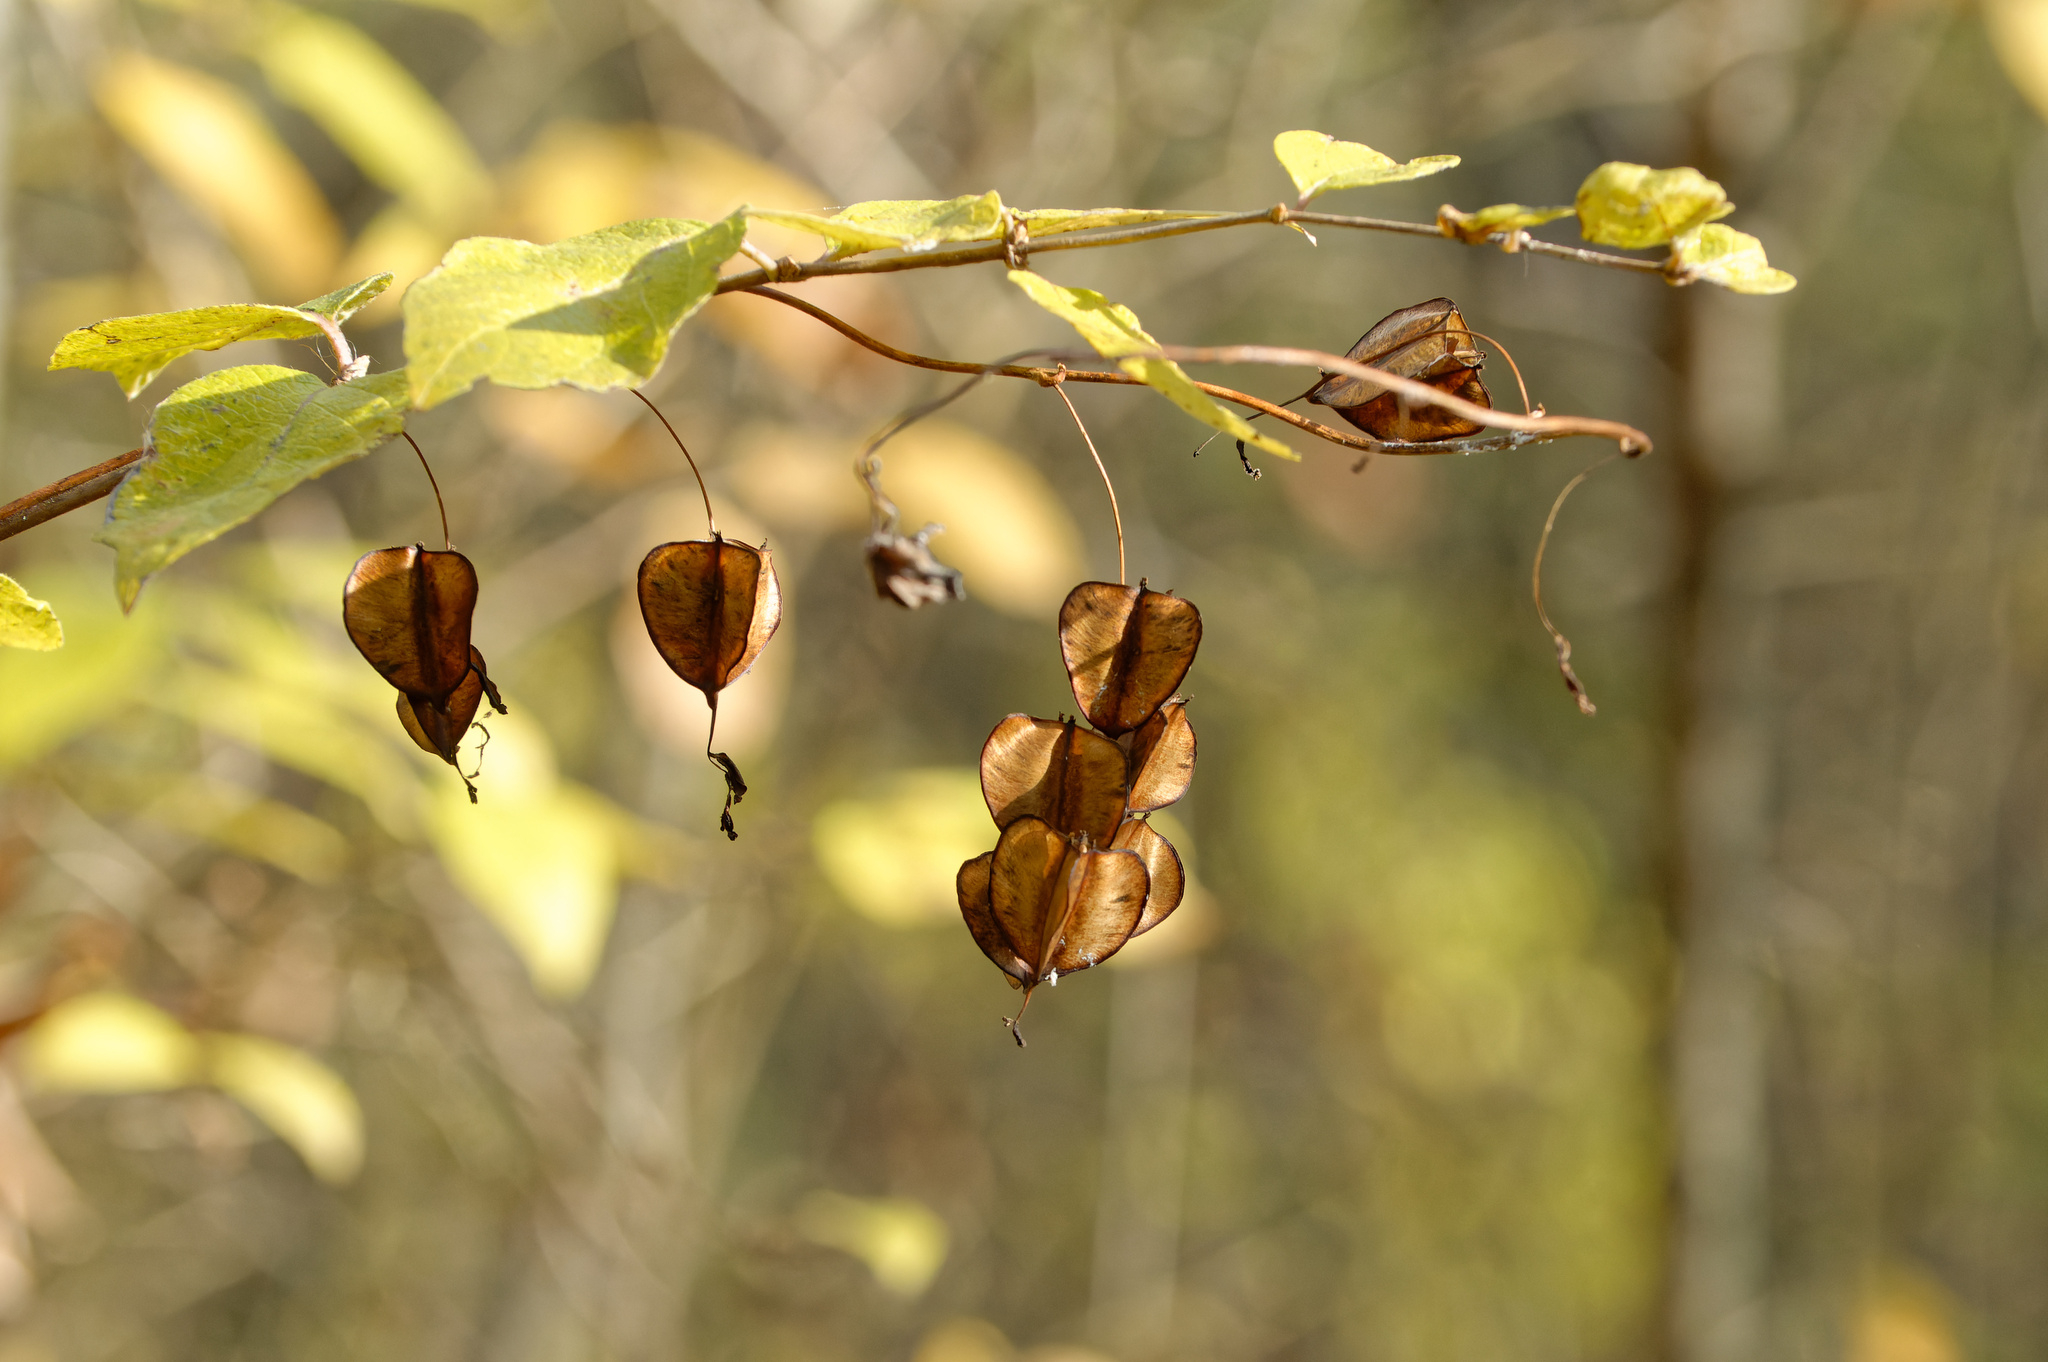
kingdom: Plantae
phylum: Tracheophyta
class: Liliopsida
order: Dioscoreales
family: Dioscoreaceae
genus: Dioscorea
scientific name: Dioscorea villosa
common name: Wild yam
